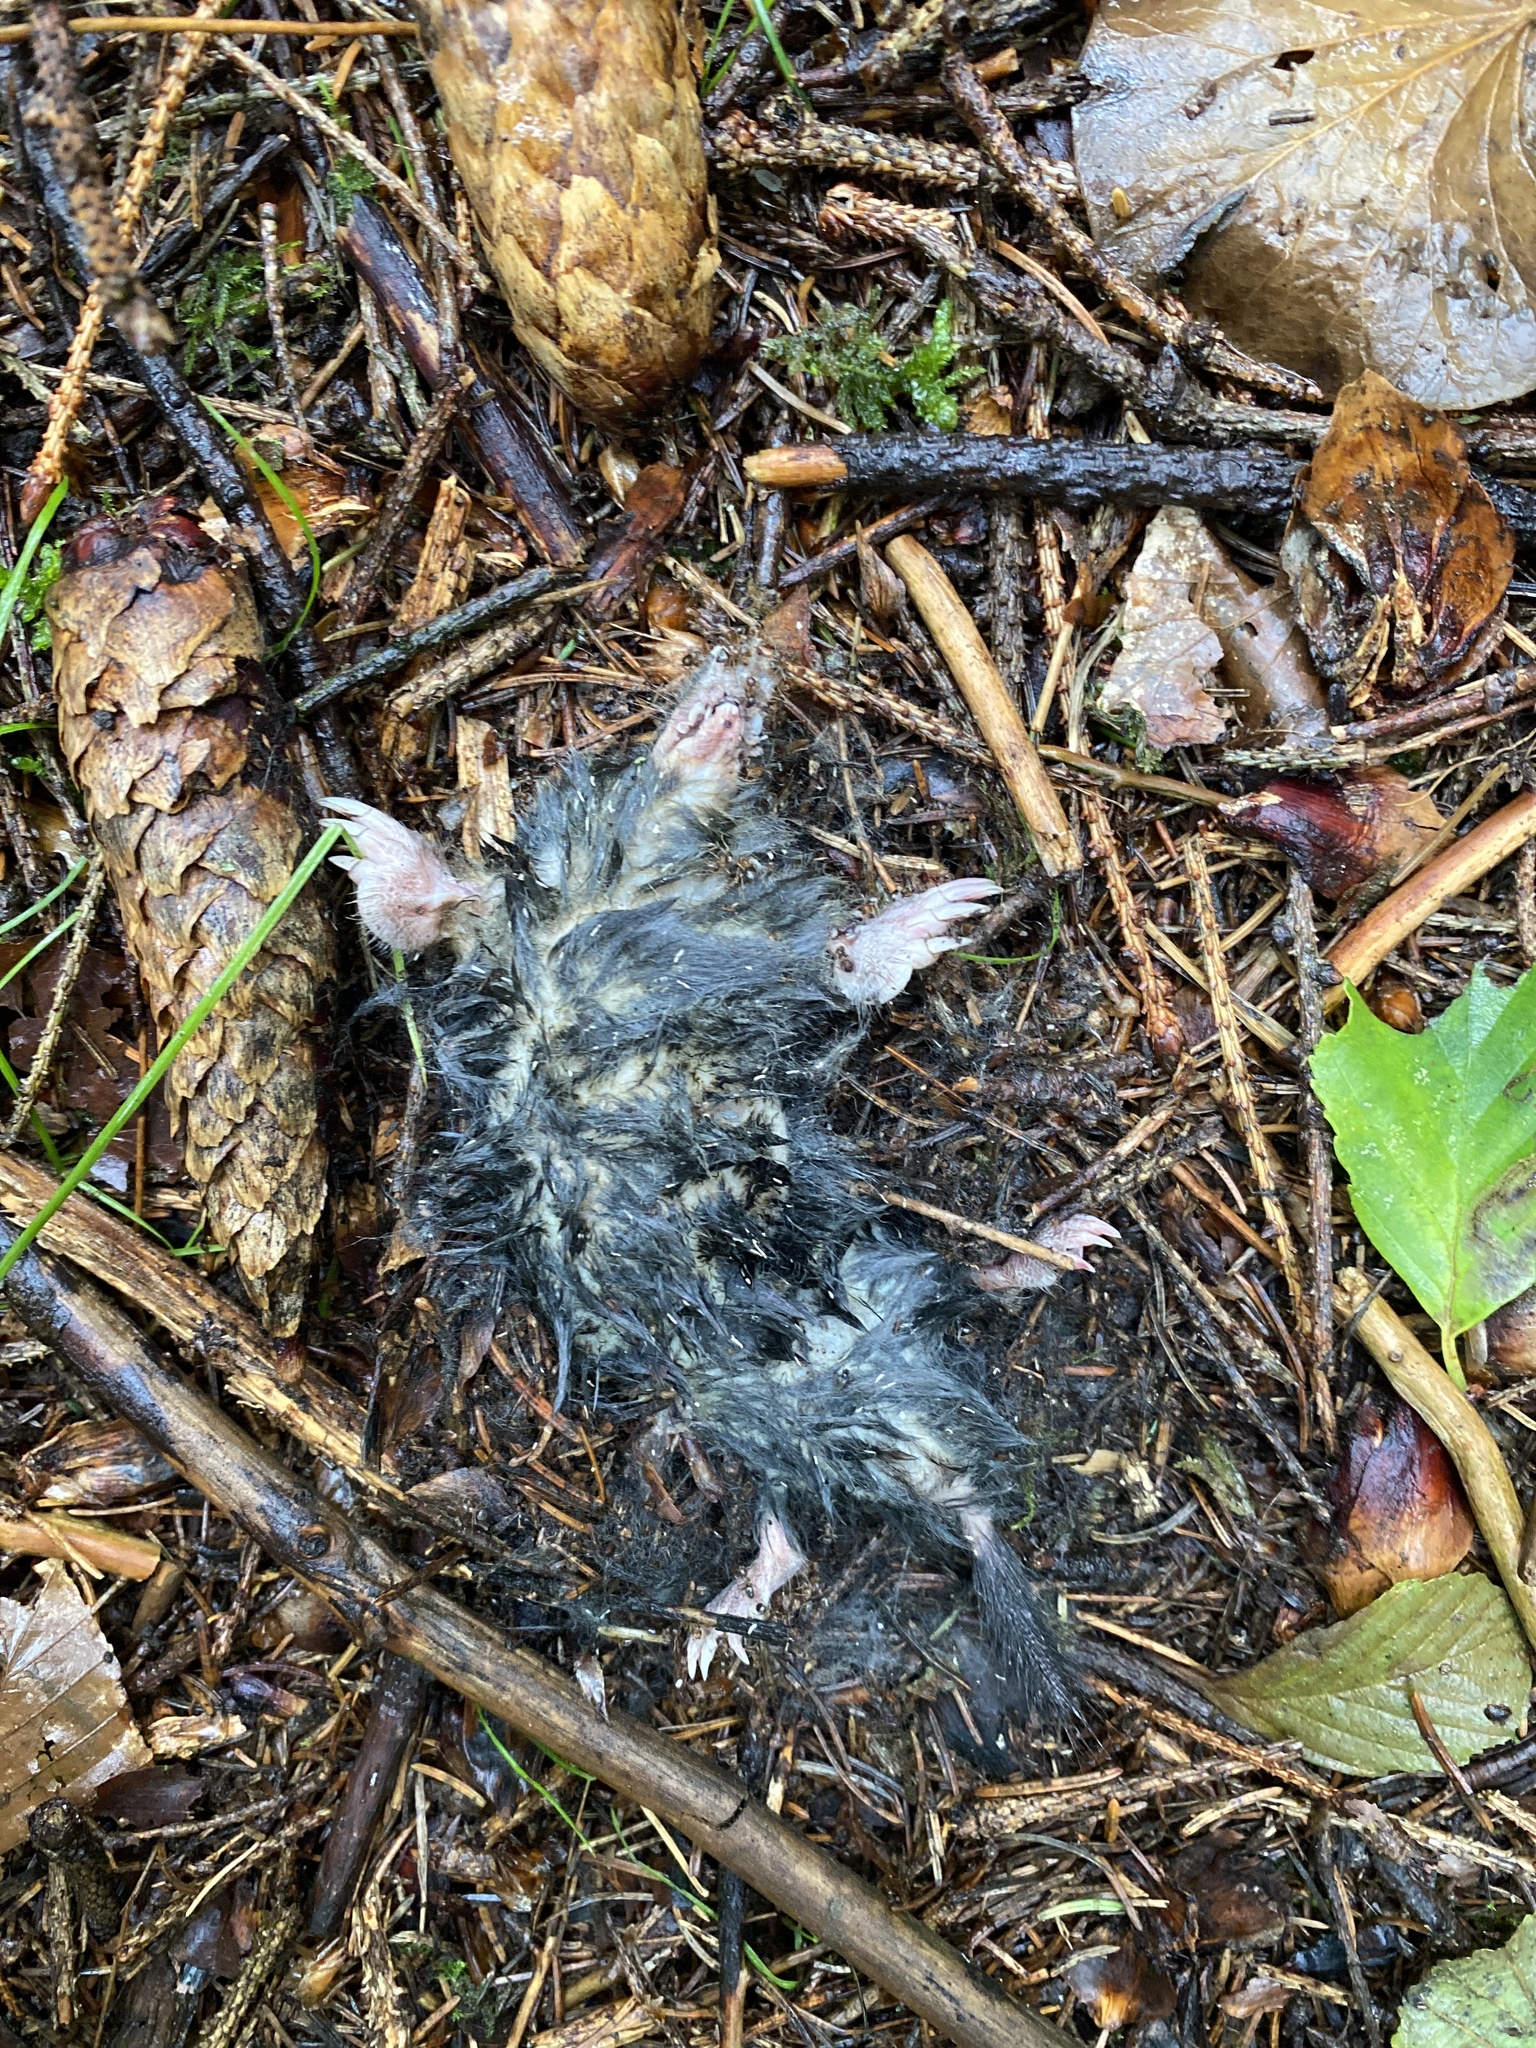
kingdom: Animalia
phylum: Chordata
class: Mammalia
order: Soricomorpha
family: Talpidae
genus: Talpa
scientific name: Talpa europaea
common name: European mole
